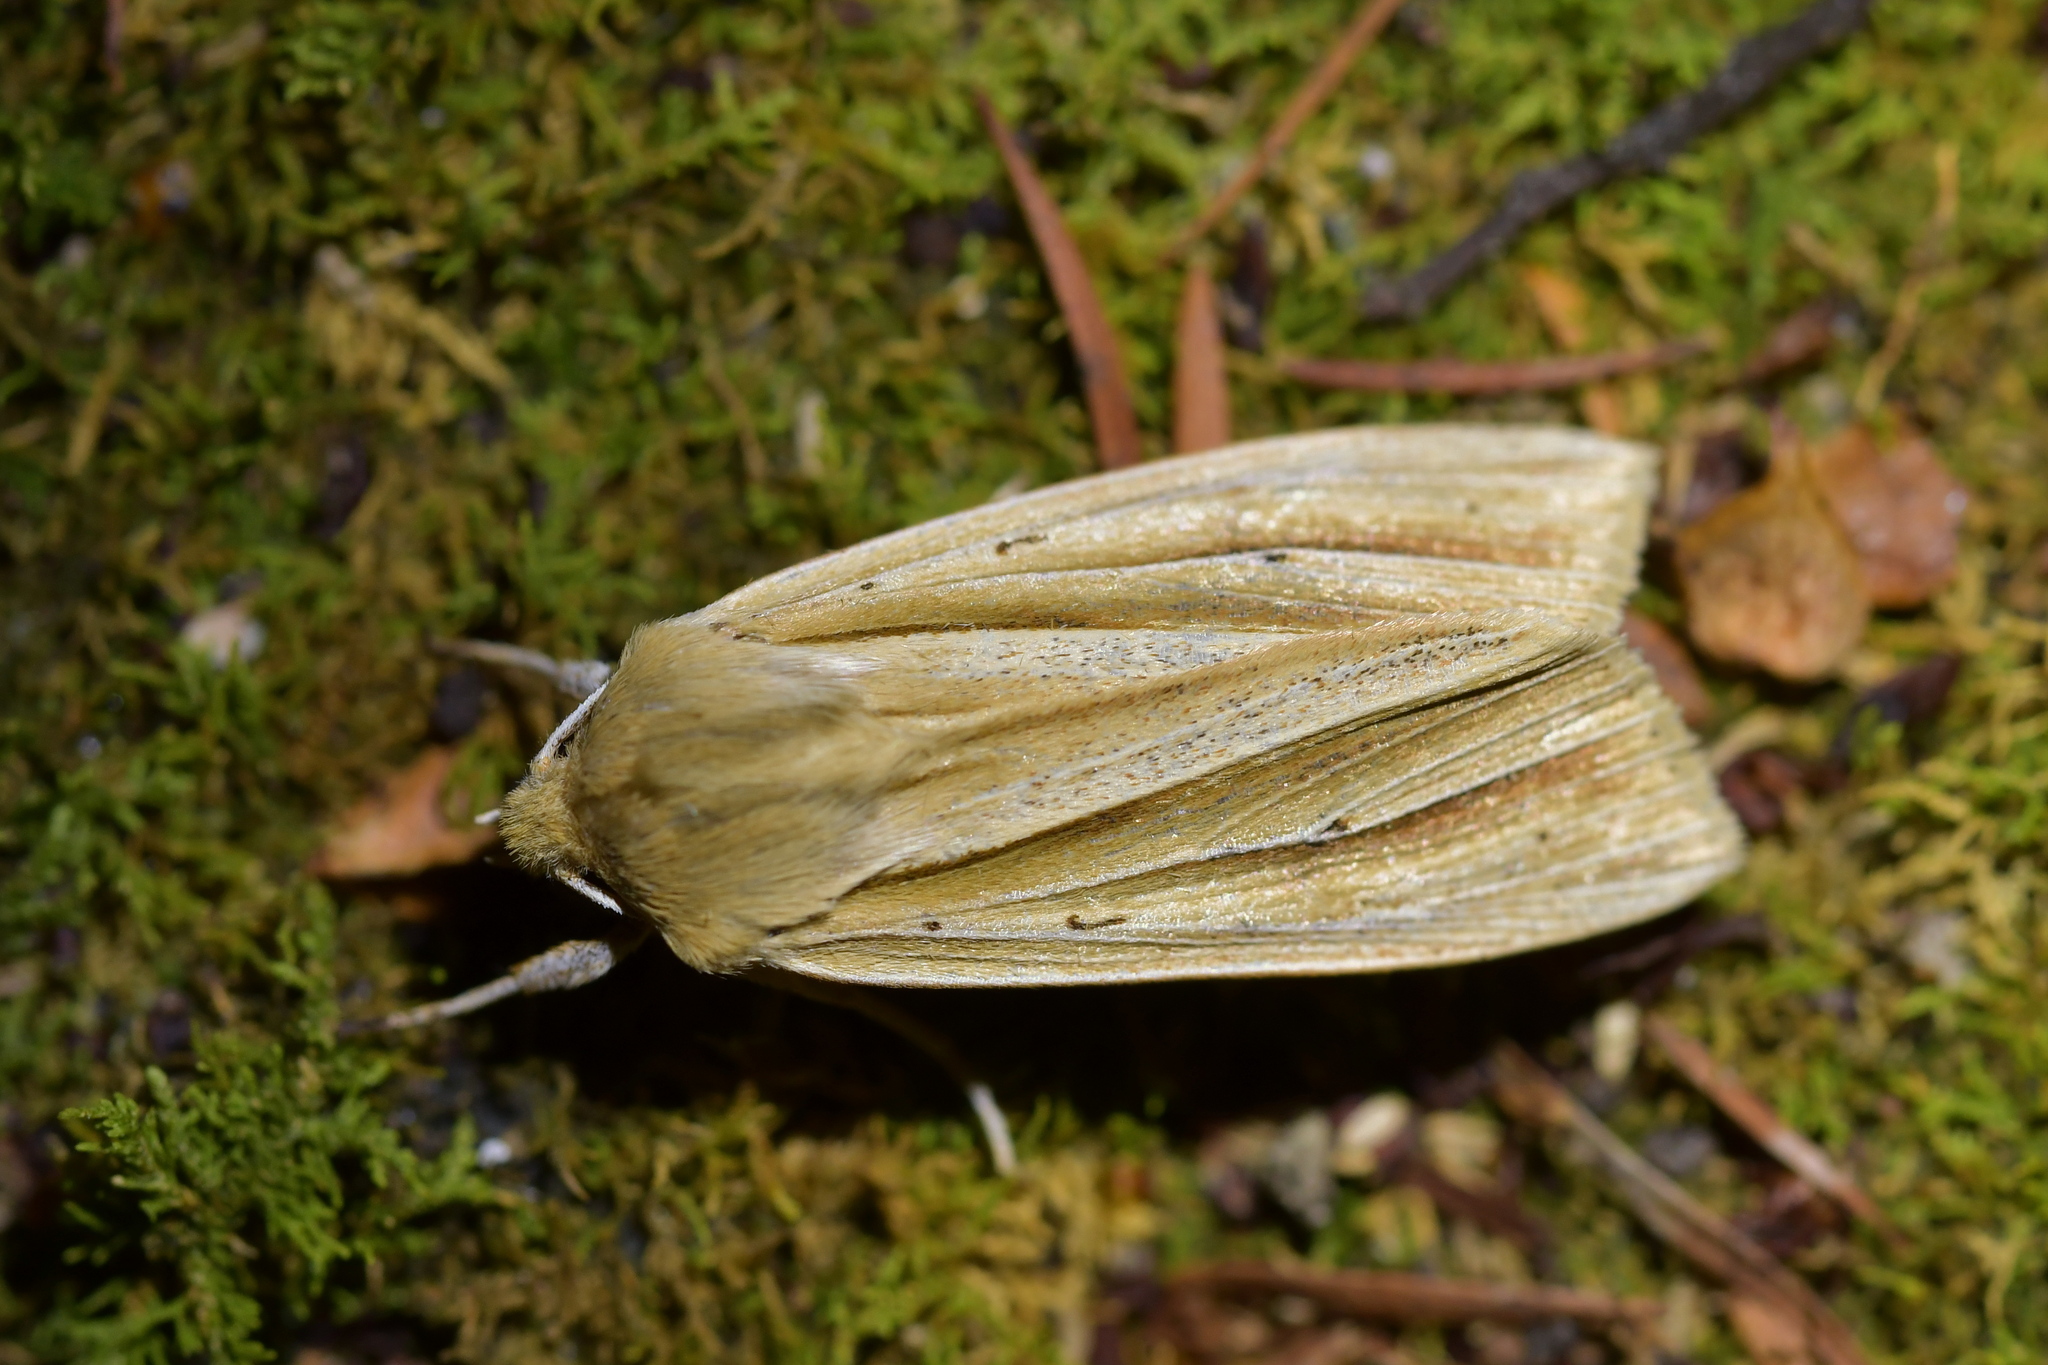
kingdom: Animalia
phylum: Arthropoda
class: Insecta
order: Lepidoptera
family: Noctuidae
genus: Ichneutica
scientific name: Ichneutica sulcana
